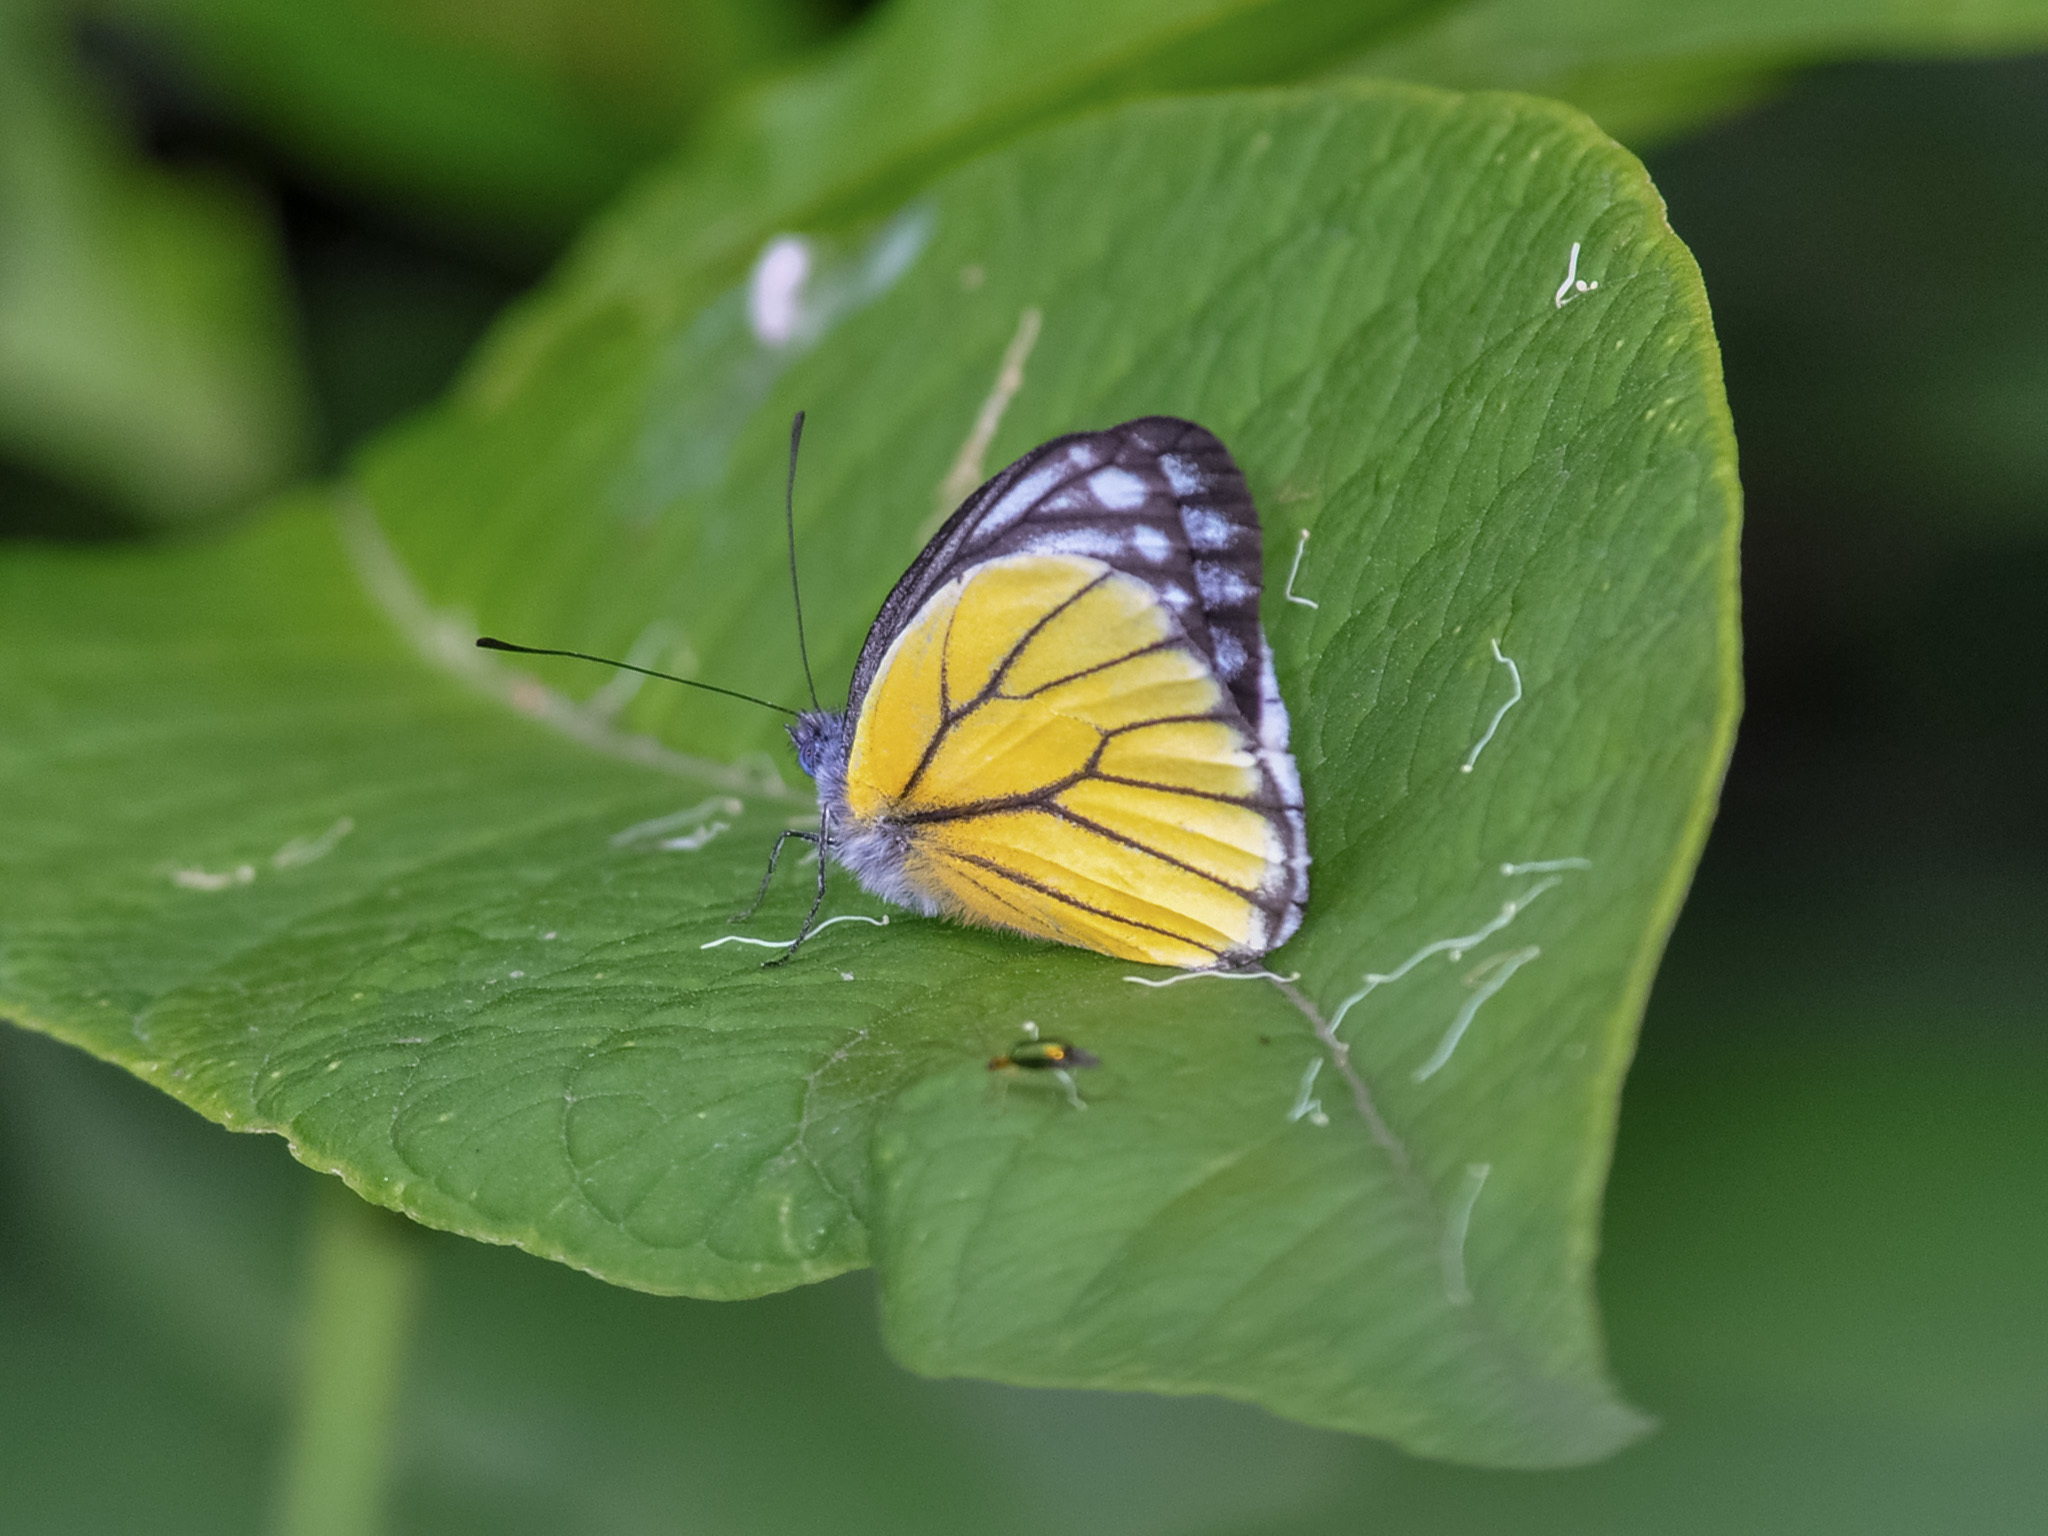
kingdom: Animalia
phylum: Arthropoda
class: Insecta
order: Lepidoptera
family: Pieridae
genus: Delias
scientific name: Delias baracasa
